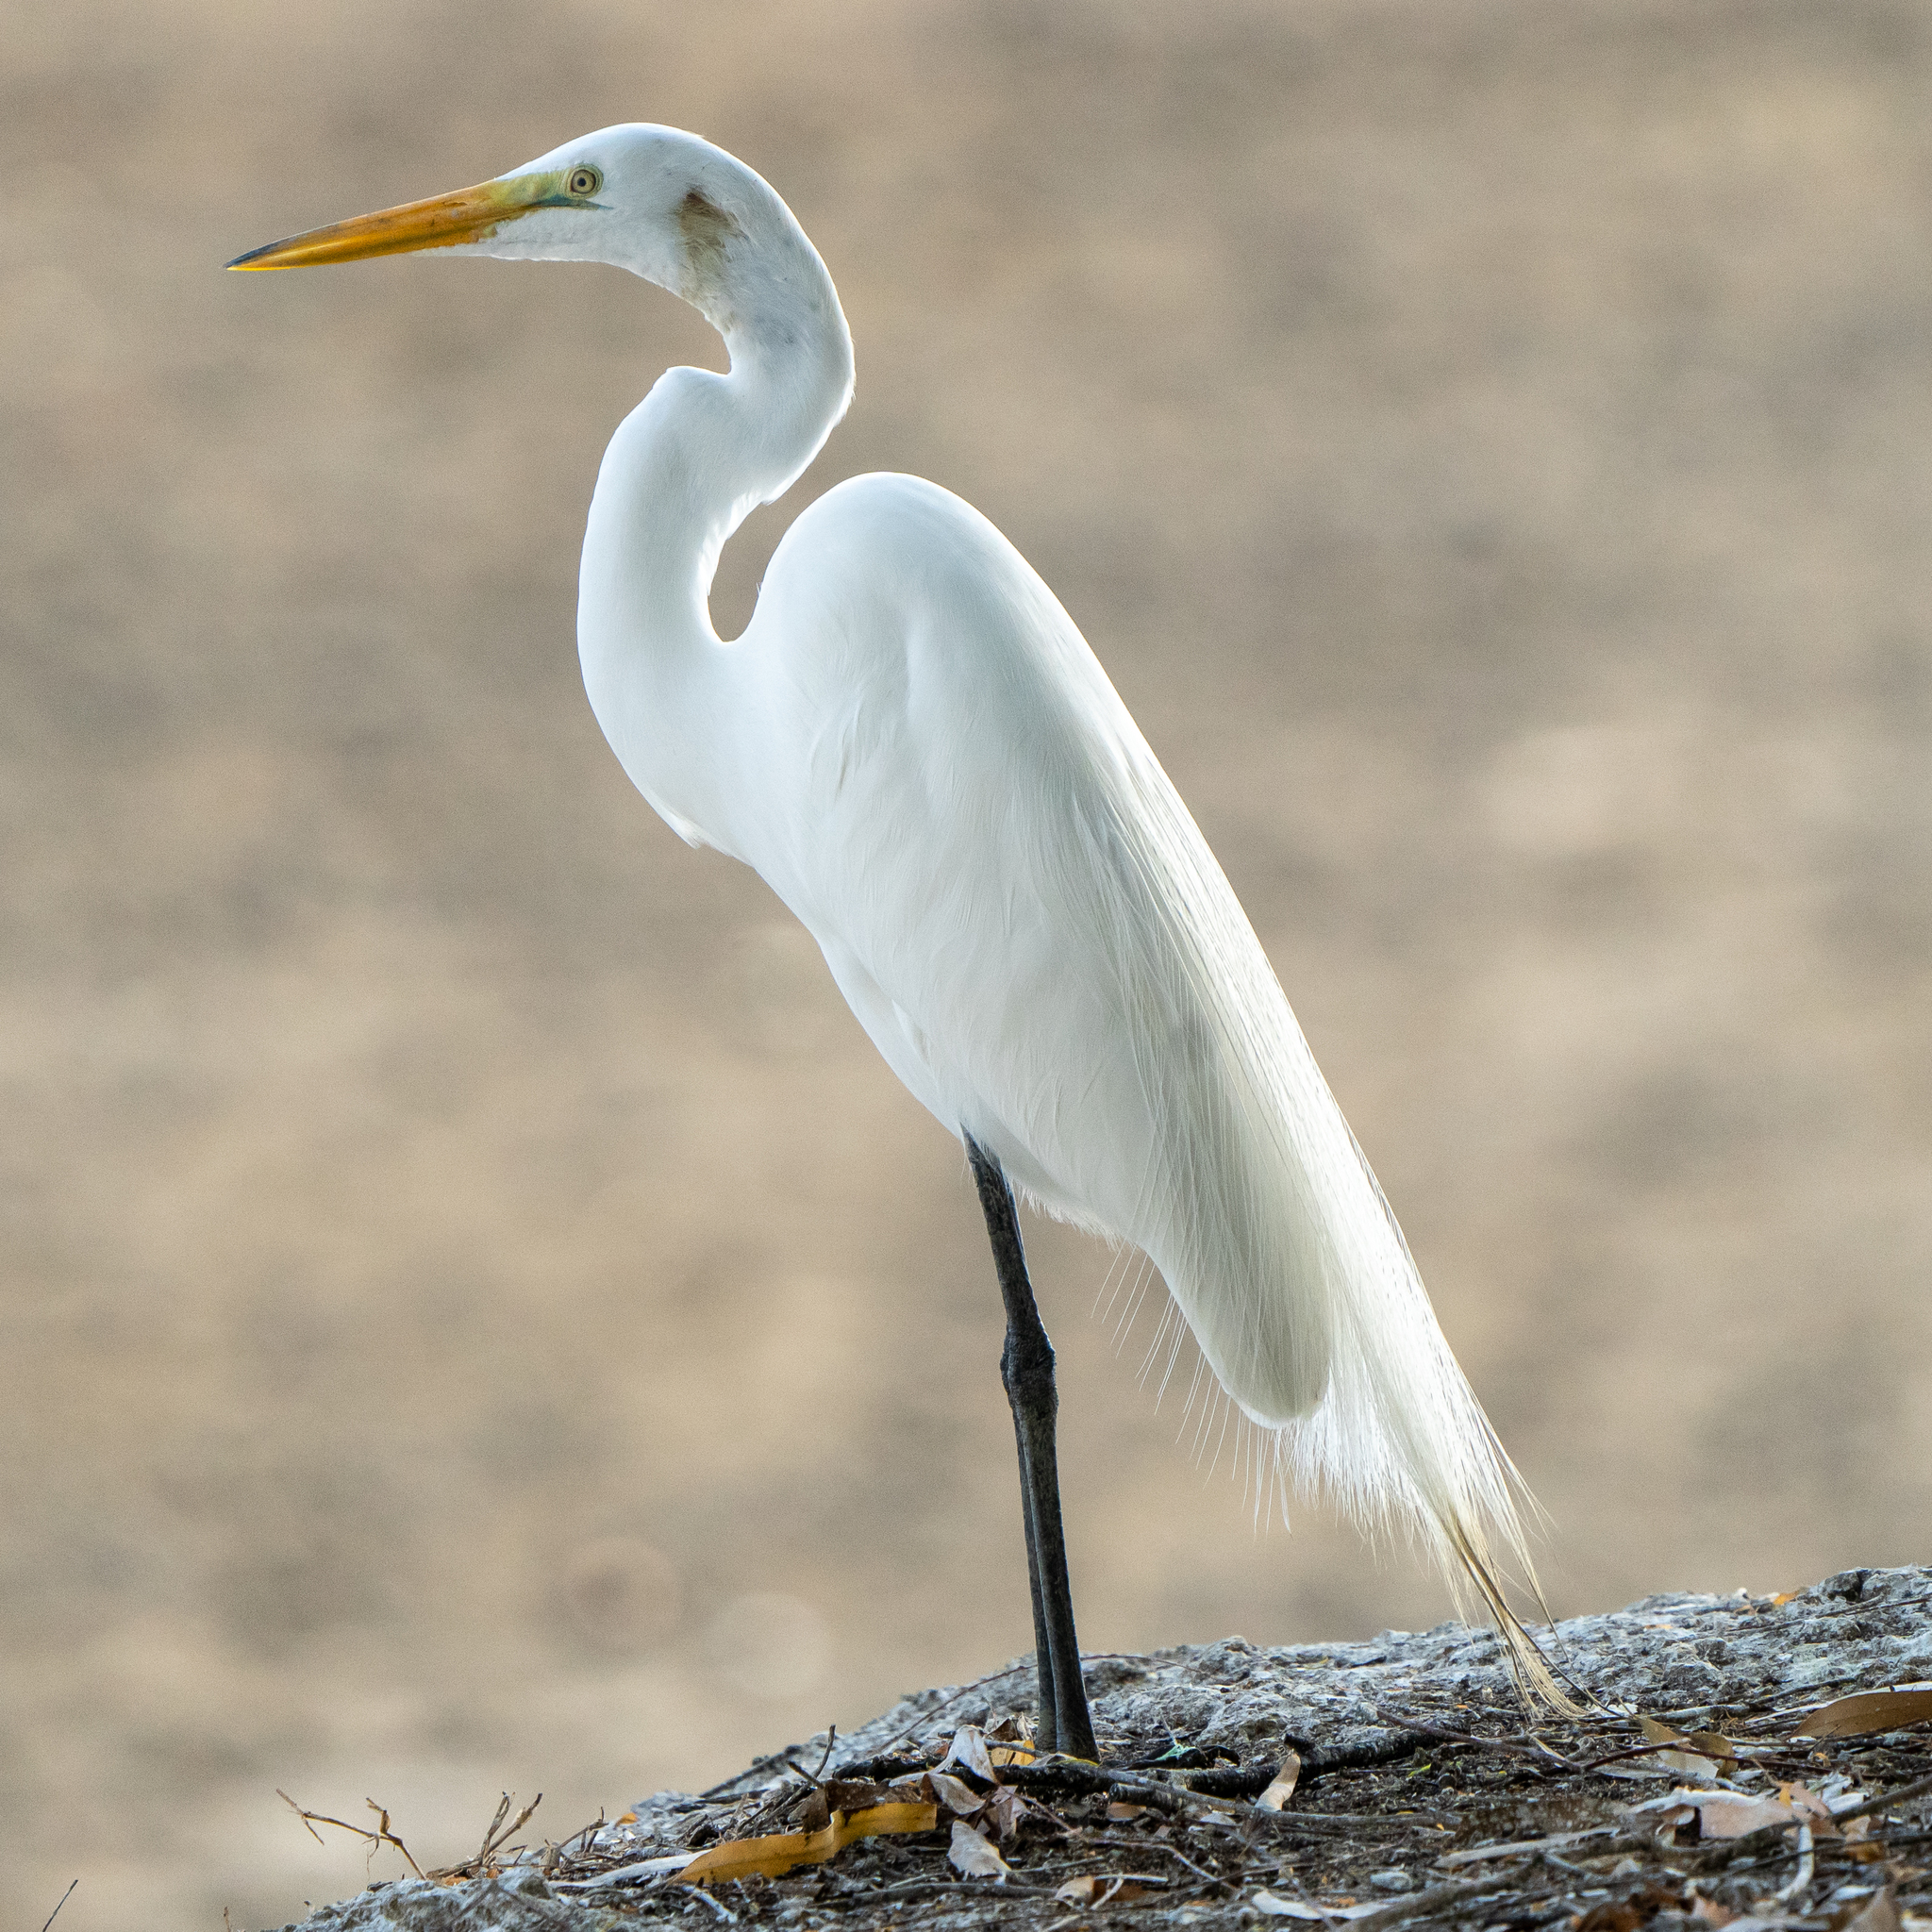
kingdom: Animalia
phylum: Chordata
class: Aves
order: Pelecaniformes
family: Ardeidae
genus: Ardea
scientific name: Ardea alba
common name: Great egret
